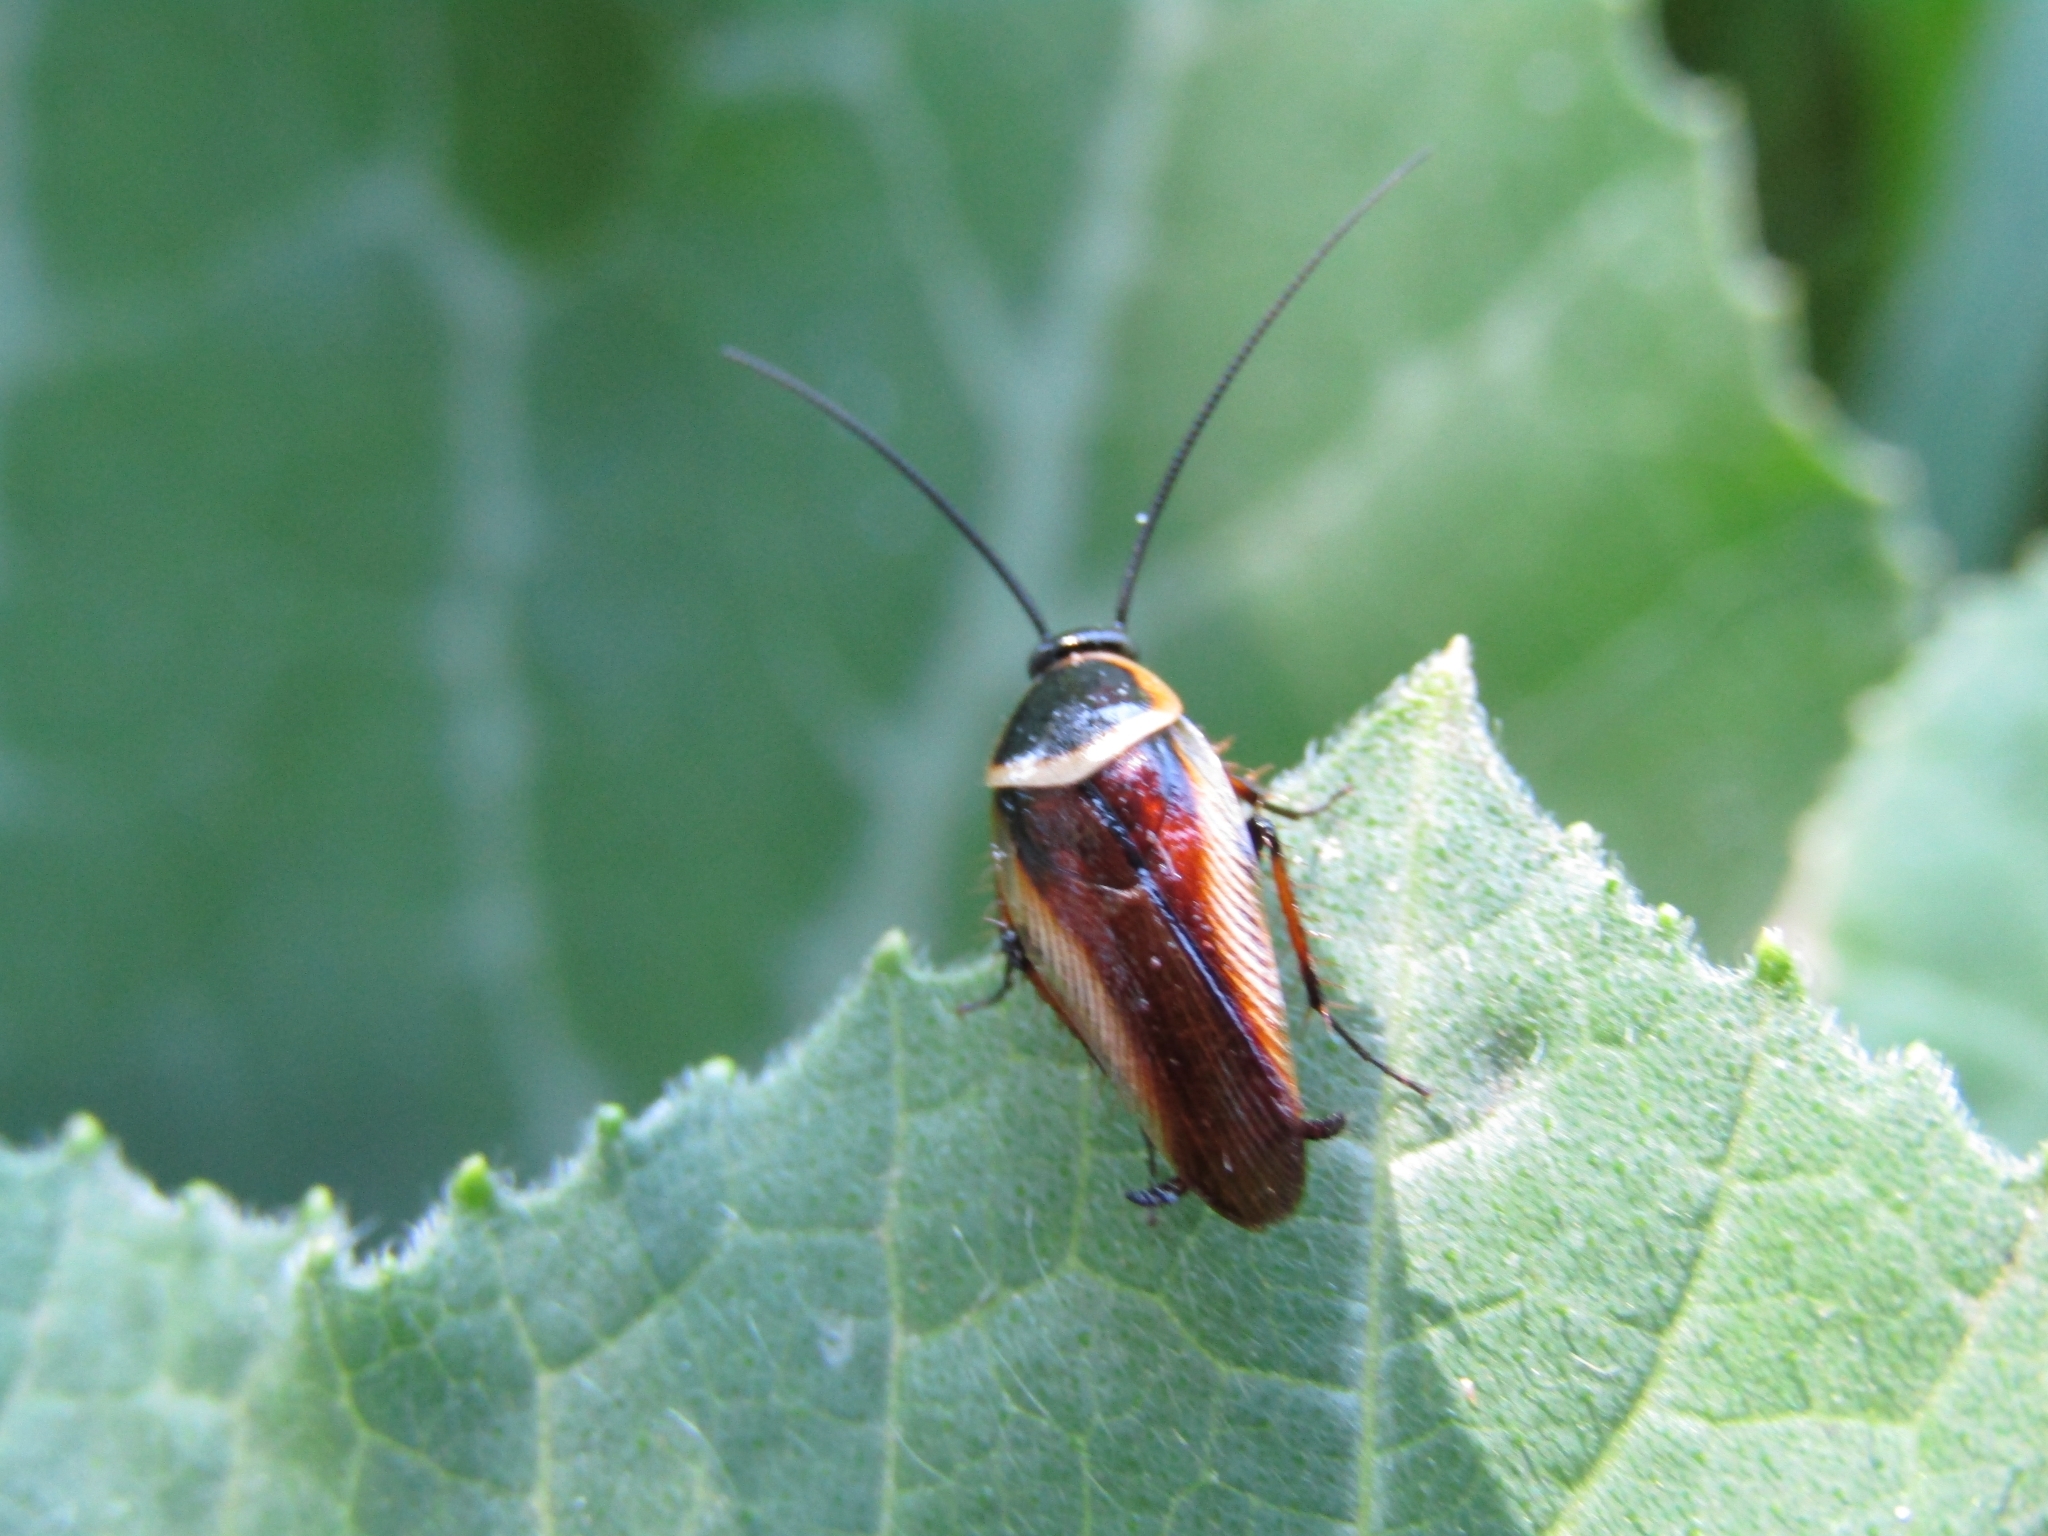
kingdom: Animalia
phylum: Arthropoda
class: Insecta
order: Blattodea
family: Ectobiidae
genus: Pseudomops
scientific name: Pseudomops neglectus
